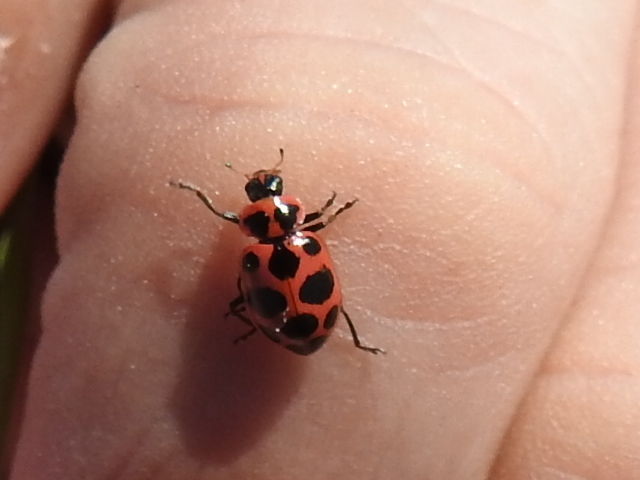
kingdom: Animalia
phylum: Arthropoda
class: Insecta
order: Coleoptera
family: Coccinellidae
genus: Coleomegilla
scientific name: Coleomegilla maculata
